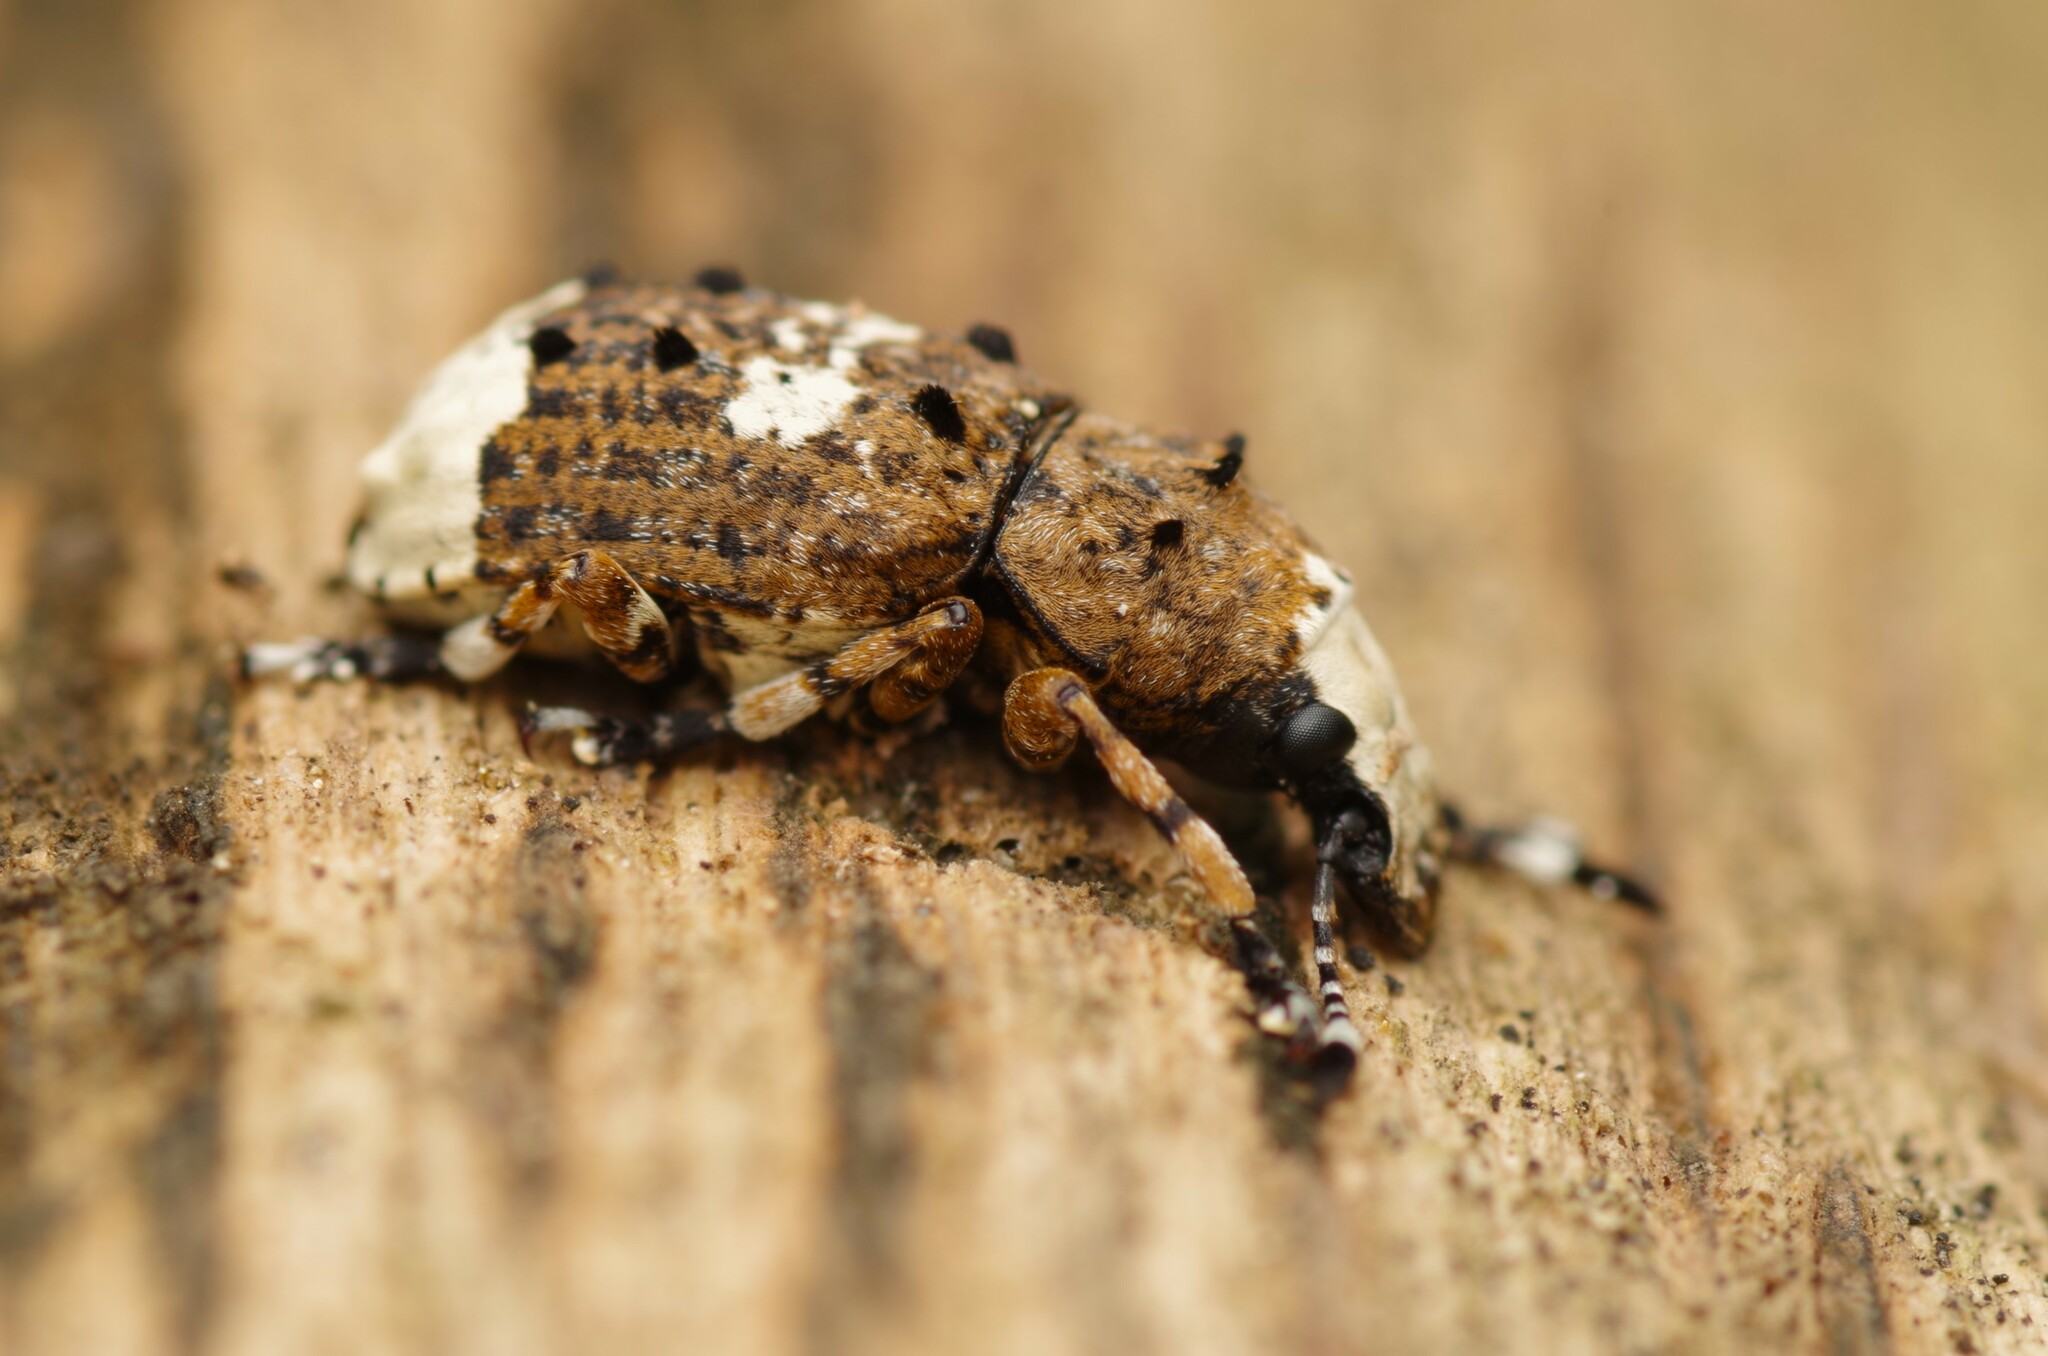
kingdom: Animalia
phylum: Arthropoda
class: Insecta
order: Coleoptera
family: Anthribidae
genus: Platystomos
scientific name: Platystomos albinus
